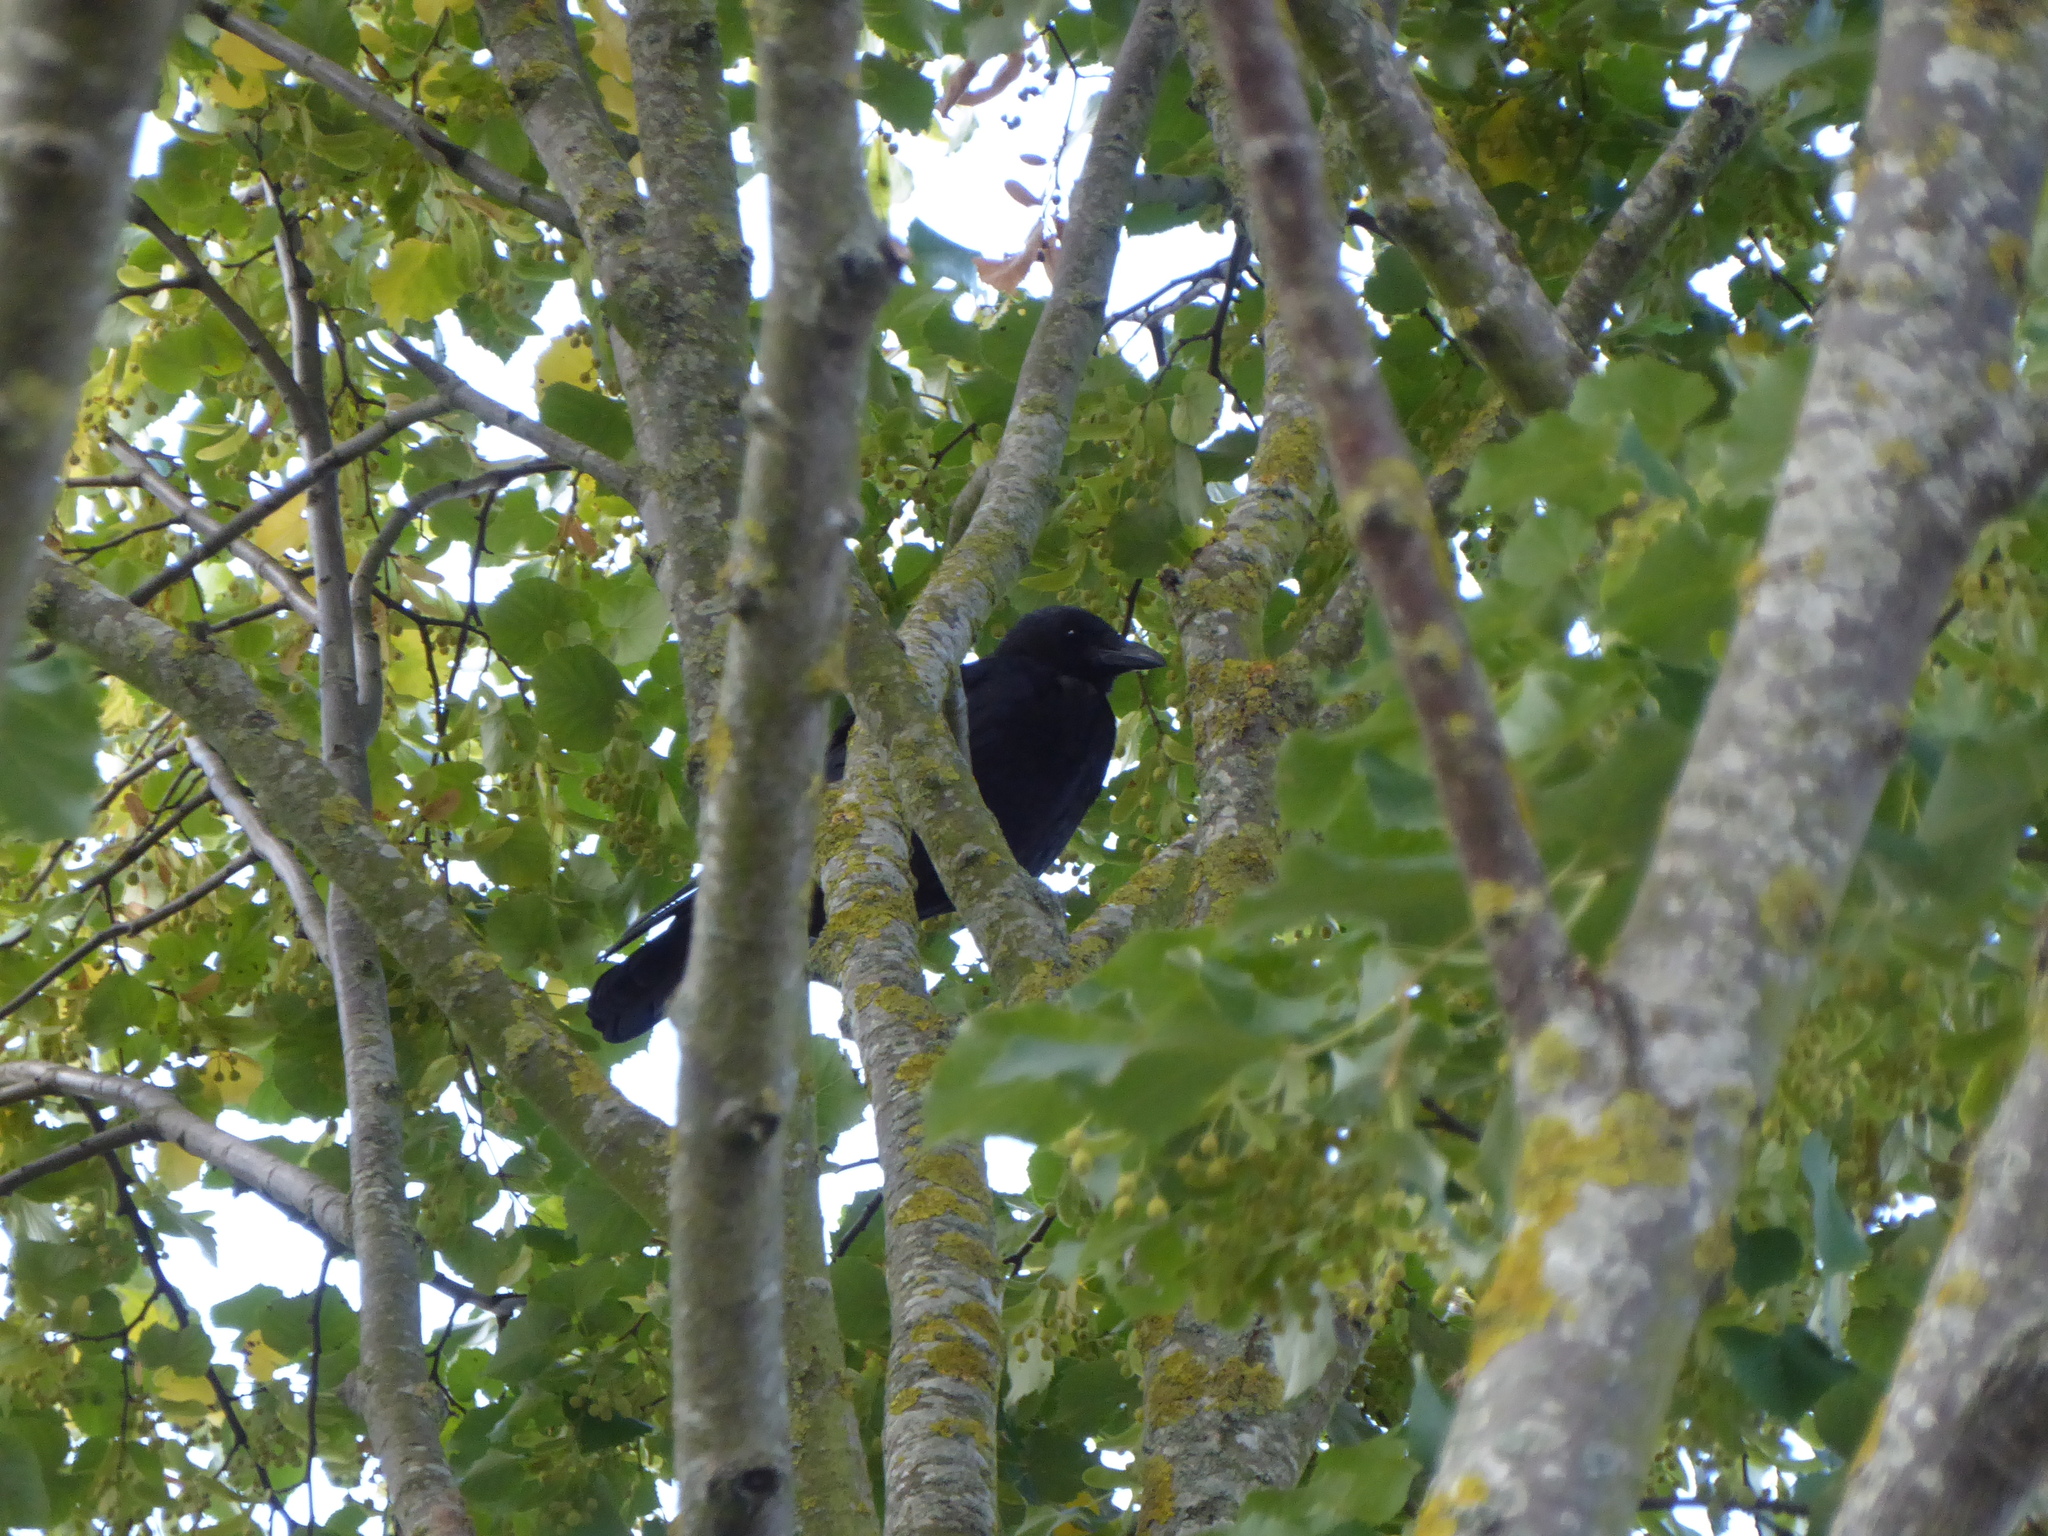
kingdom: Animalia
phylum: Chordata
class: Aves
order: Passeriformes
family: Corvidae
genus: Corvus
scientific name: Corvus corone
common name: Carrion crow
